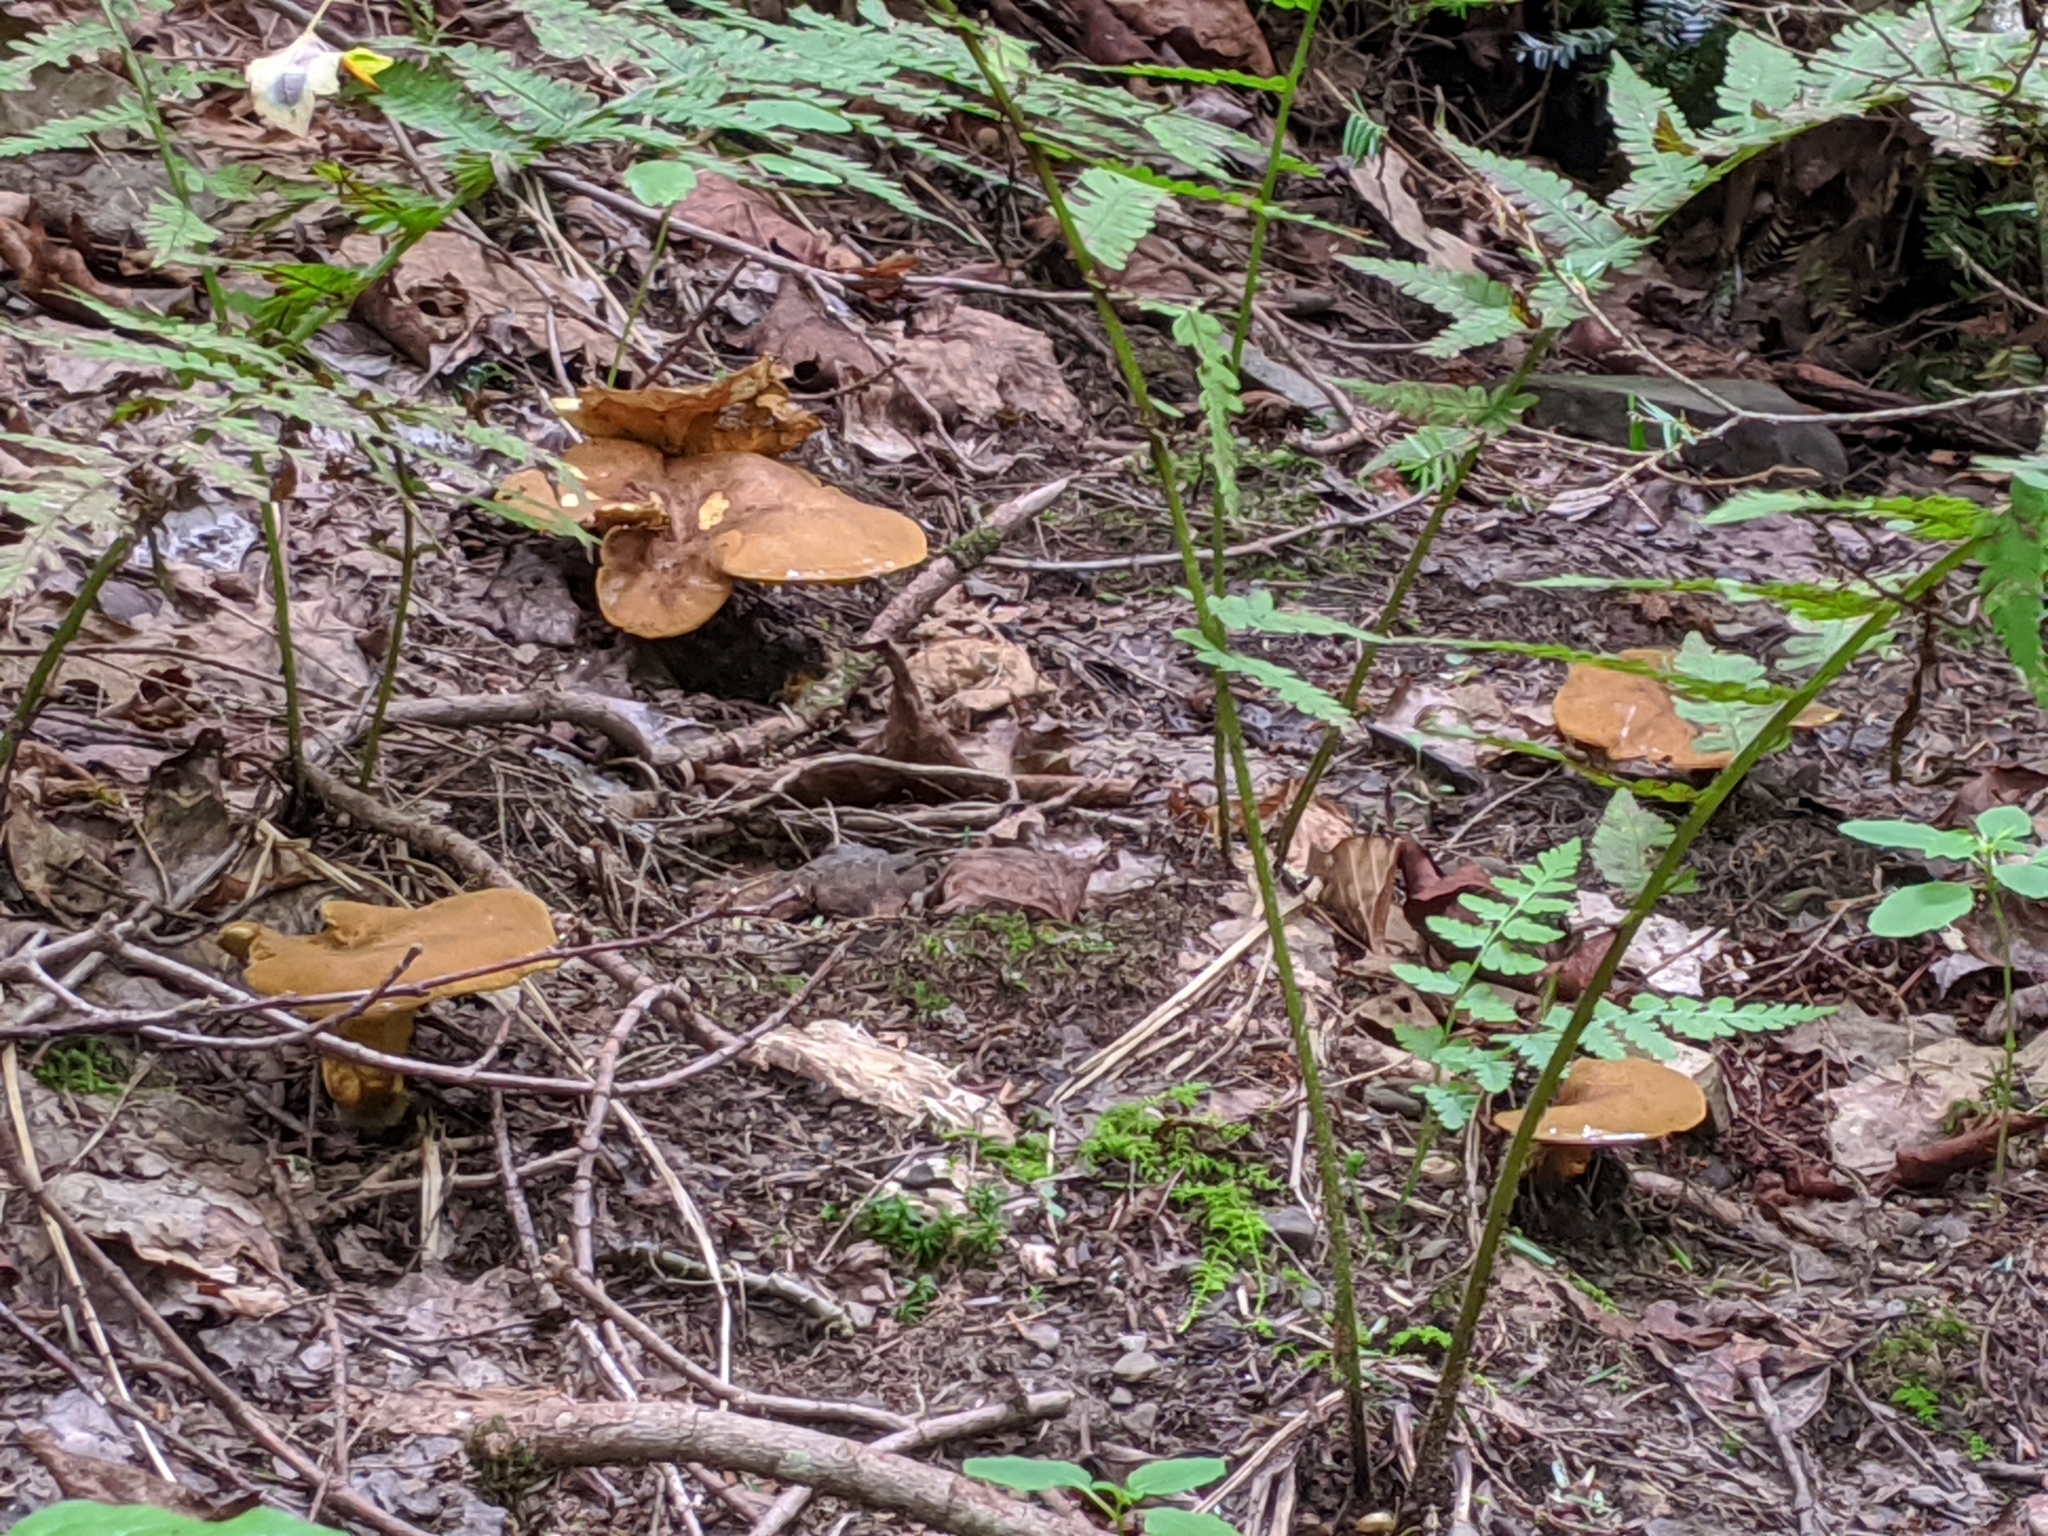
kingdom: Fungi
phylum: Basidiomycota
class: Agaricomycetes
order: Boletales
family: Boletinellaceae
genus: Boletinellus
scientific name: Boletinellus merulioides
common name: Ash tree bolete
